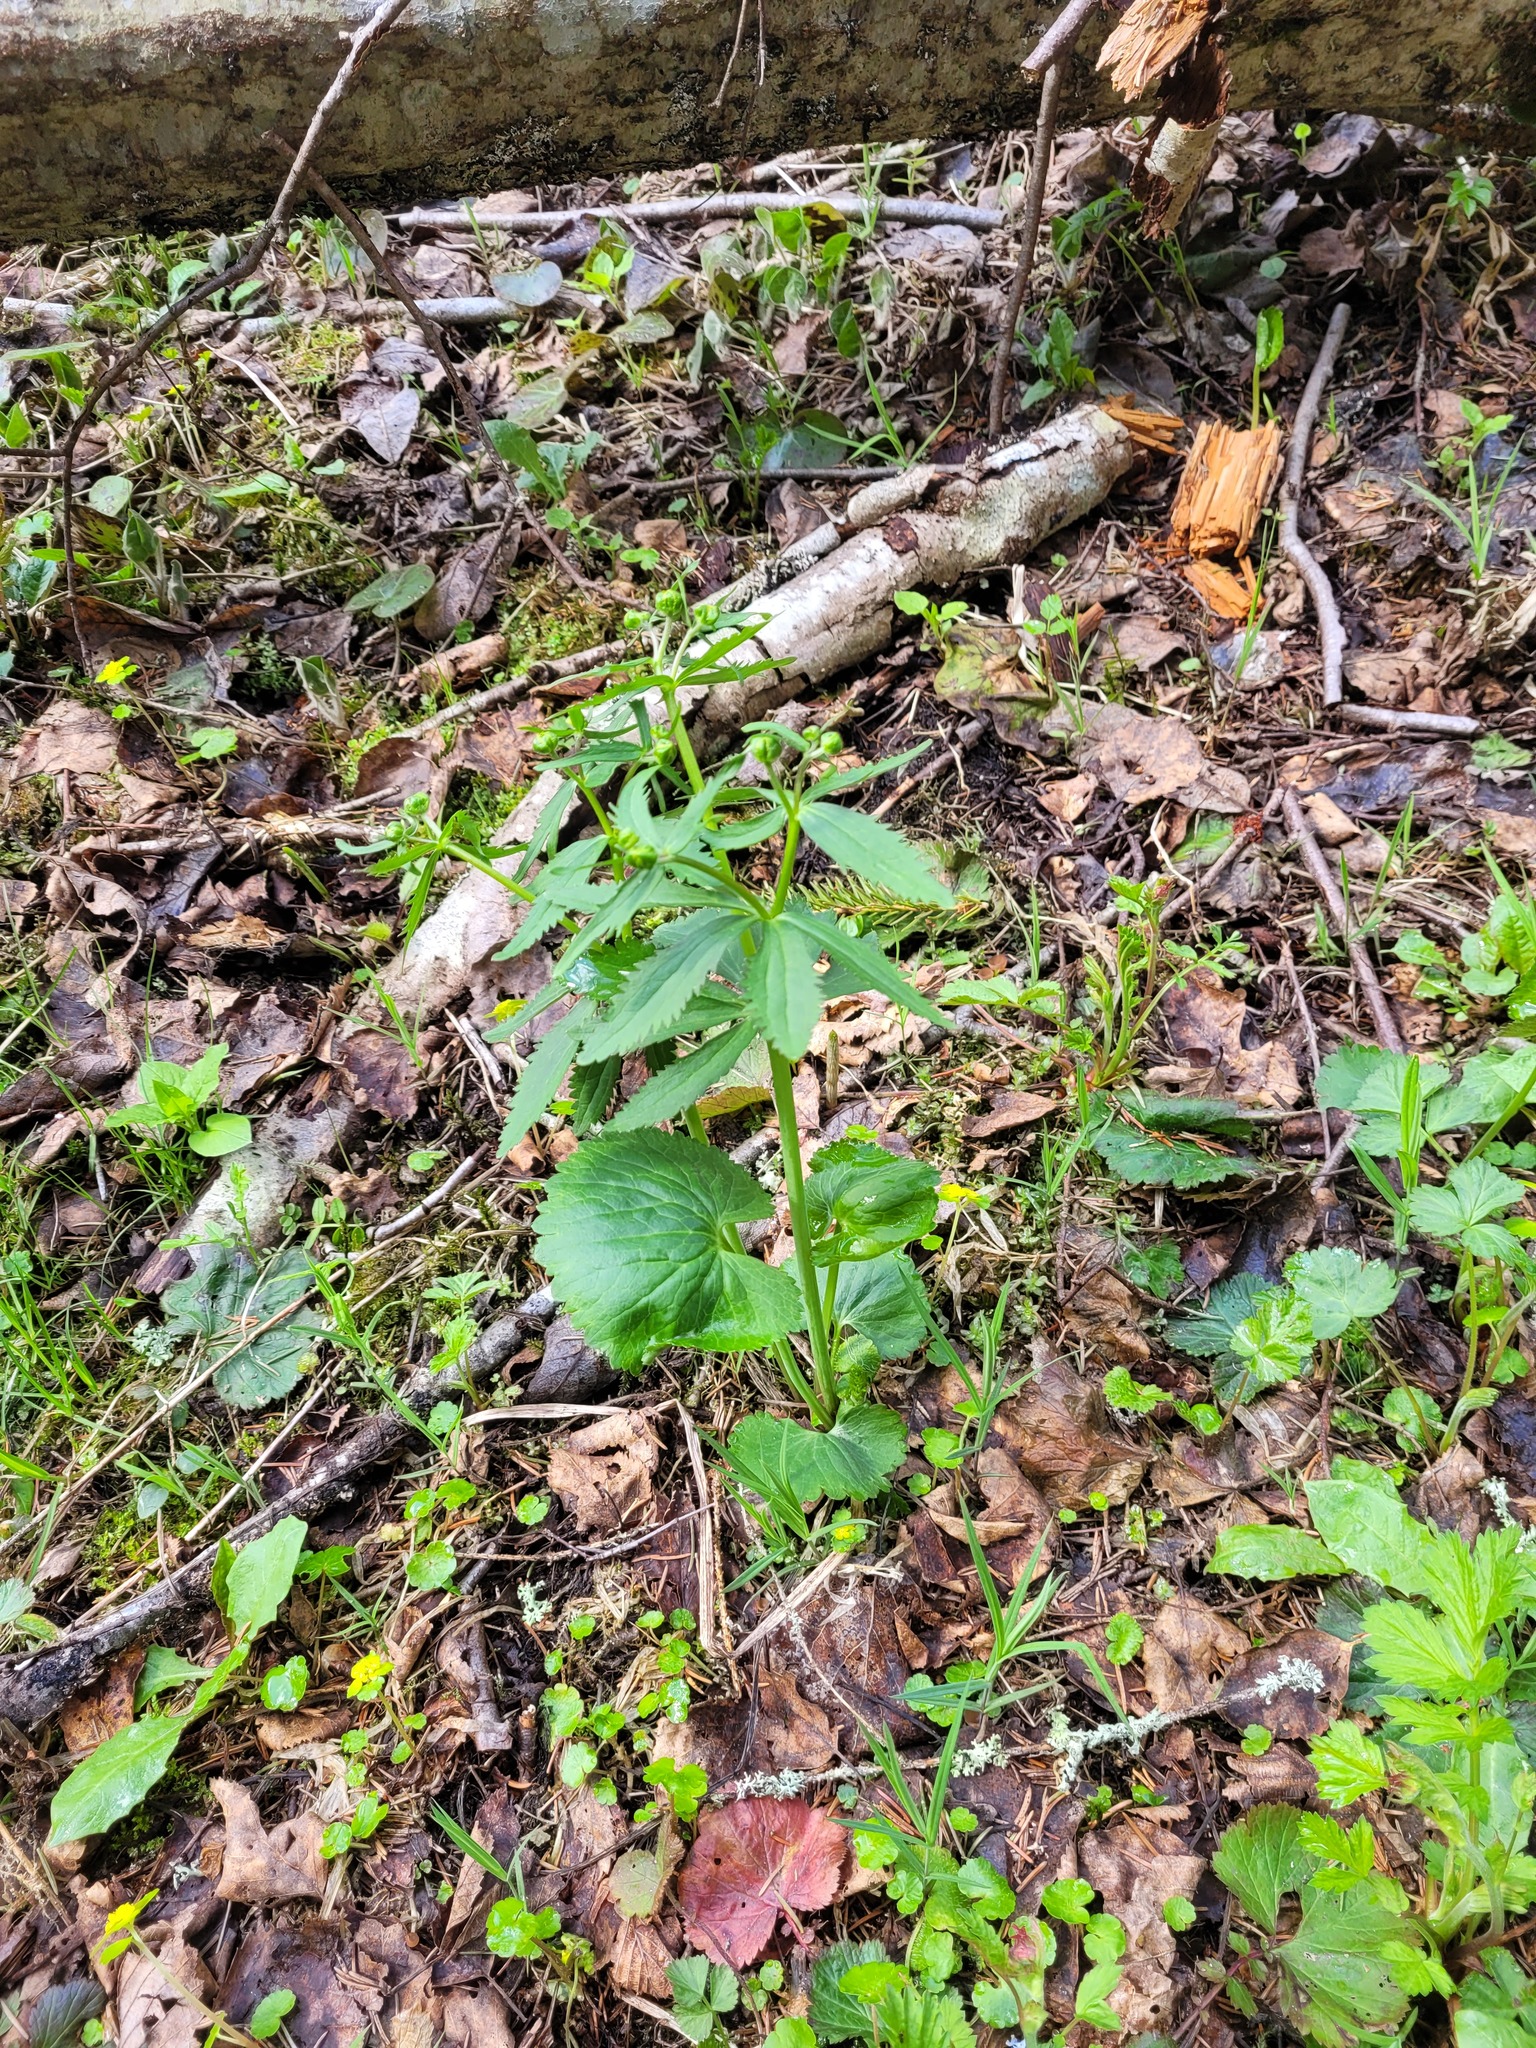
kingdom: Plantae
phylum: Tracheophyta
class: Magnoliopsida
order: Ranunculales
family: Ranunculaceae
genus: Ranunculus
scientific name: Ranunculus cassubicus
